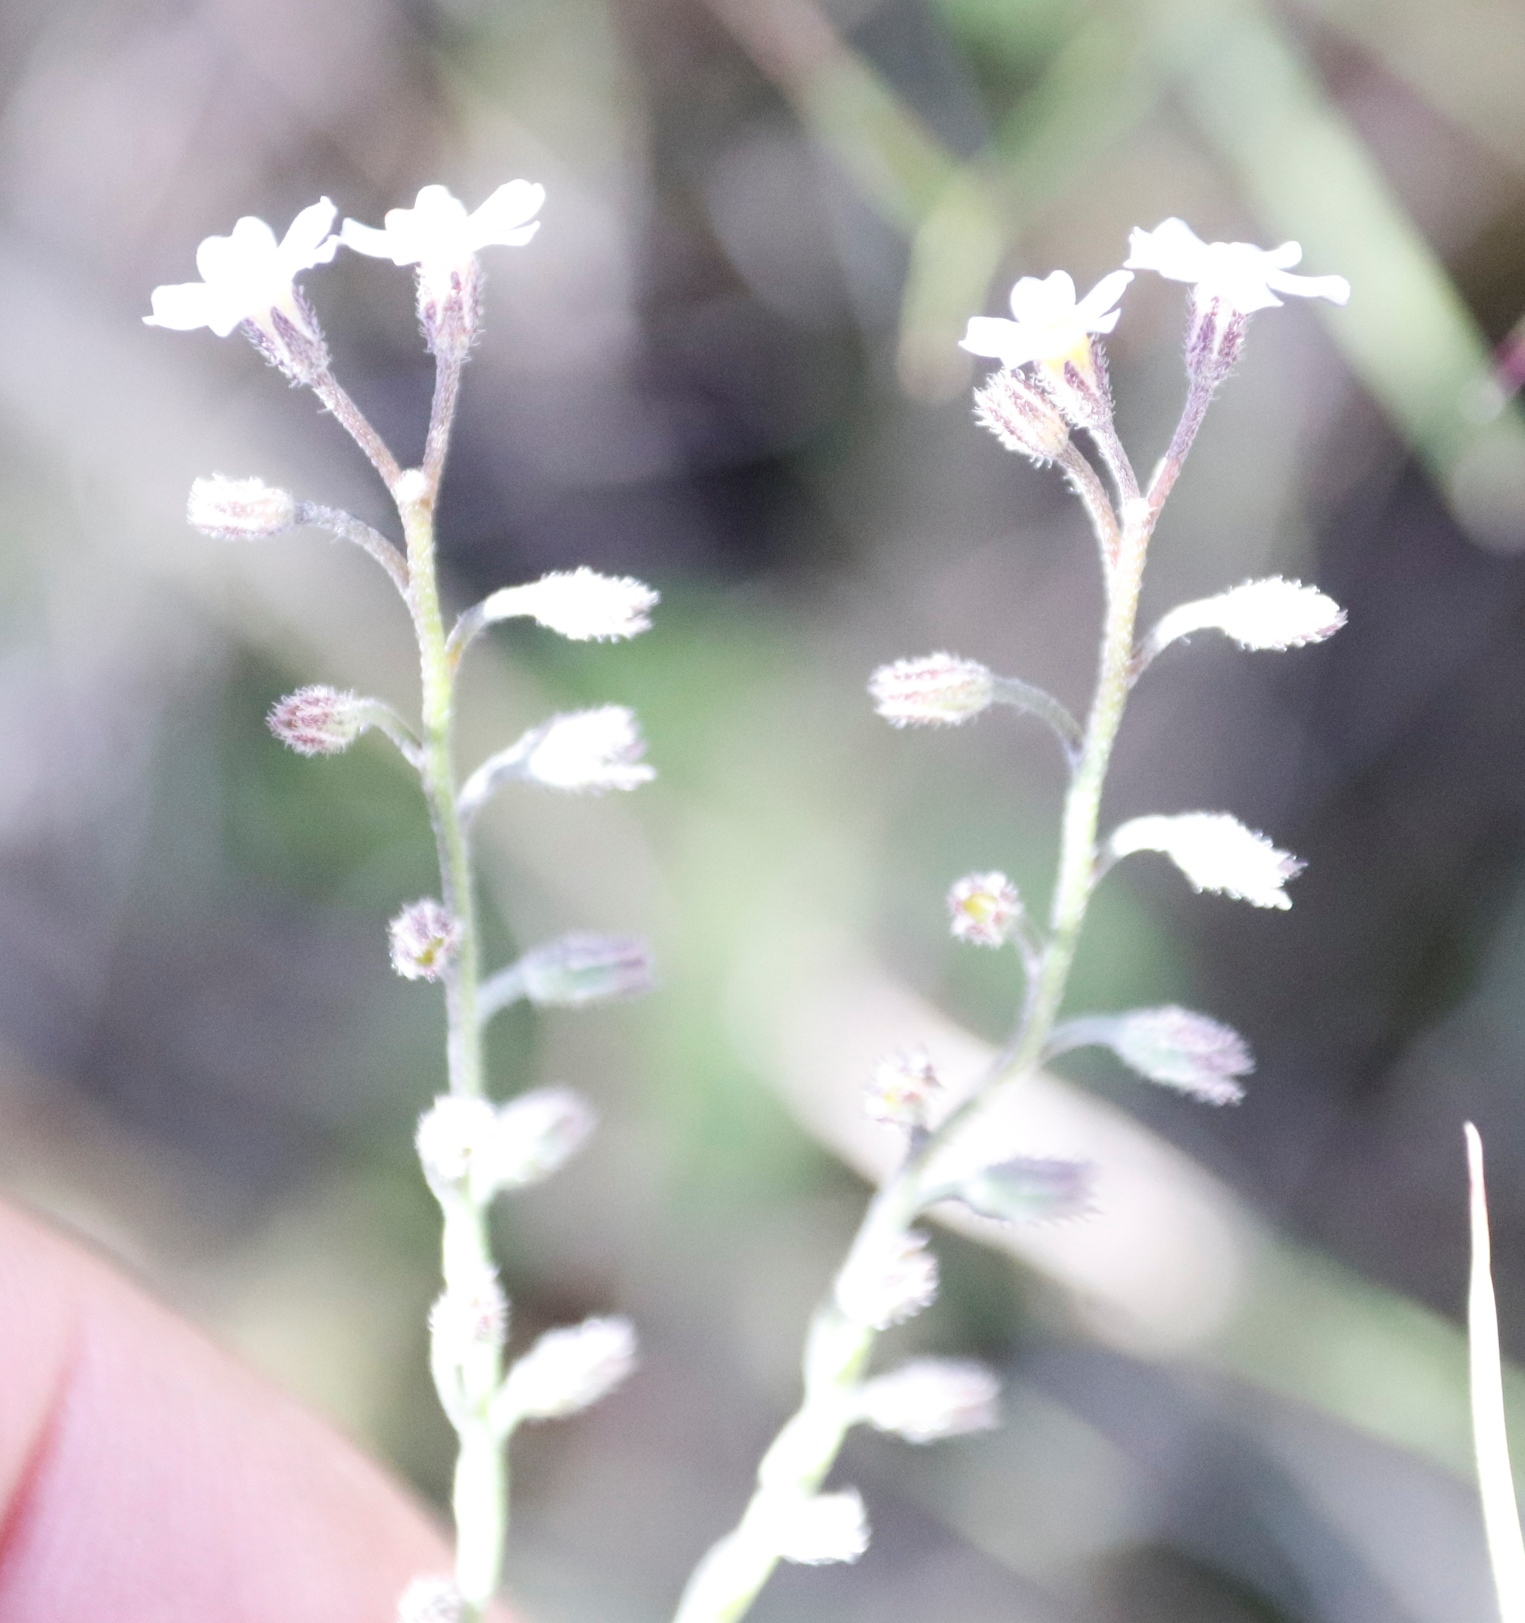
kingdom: Plantae
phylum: Tracheophyta
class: Magnoliopsida
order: Boraginales
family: Boraginaceae
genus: Myosotis
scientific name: Myosotis semiamplexicaulis
